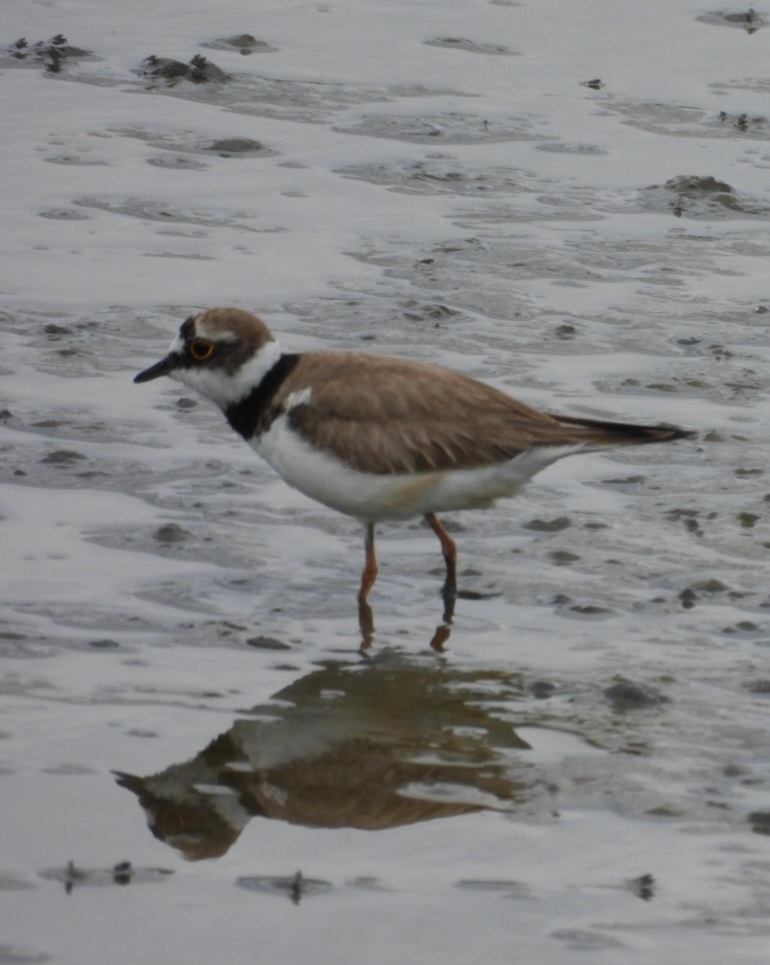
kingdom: Animalia
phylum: Chordata
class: Aves
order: Charadriiformes
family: Charadriidae
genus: Charadrius
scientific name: Charadrius dubius
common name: Little ringed plover
